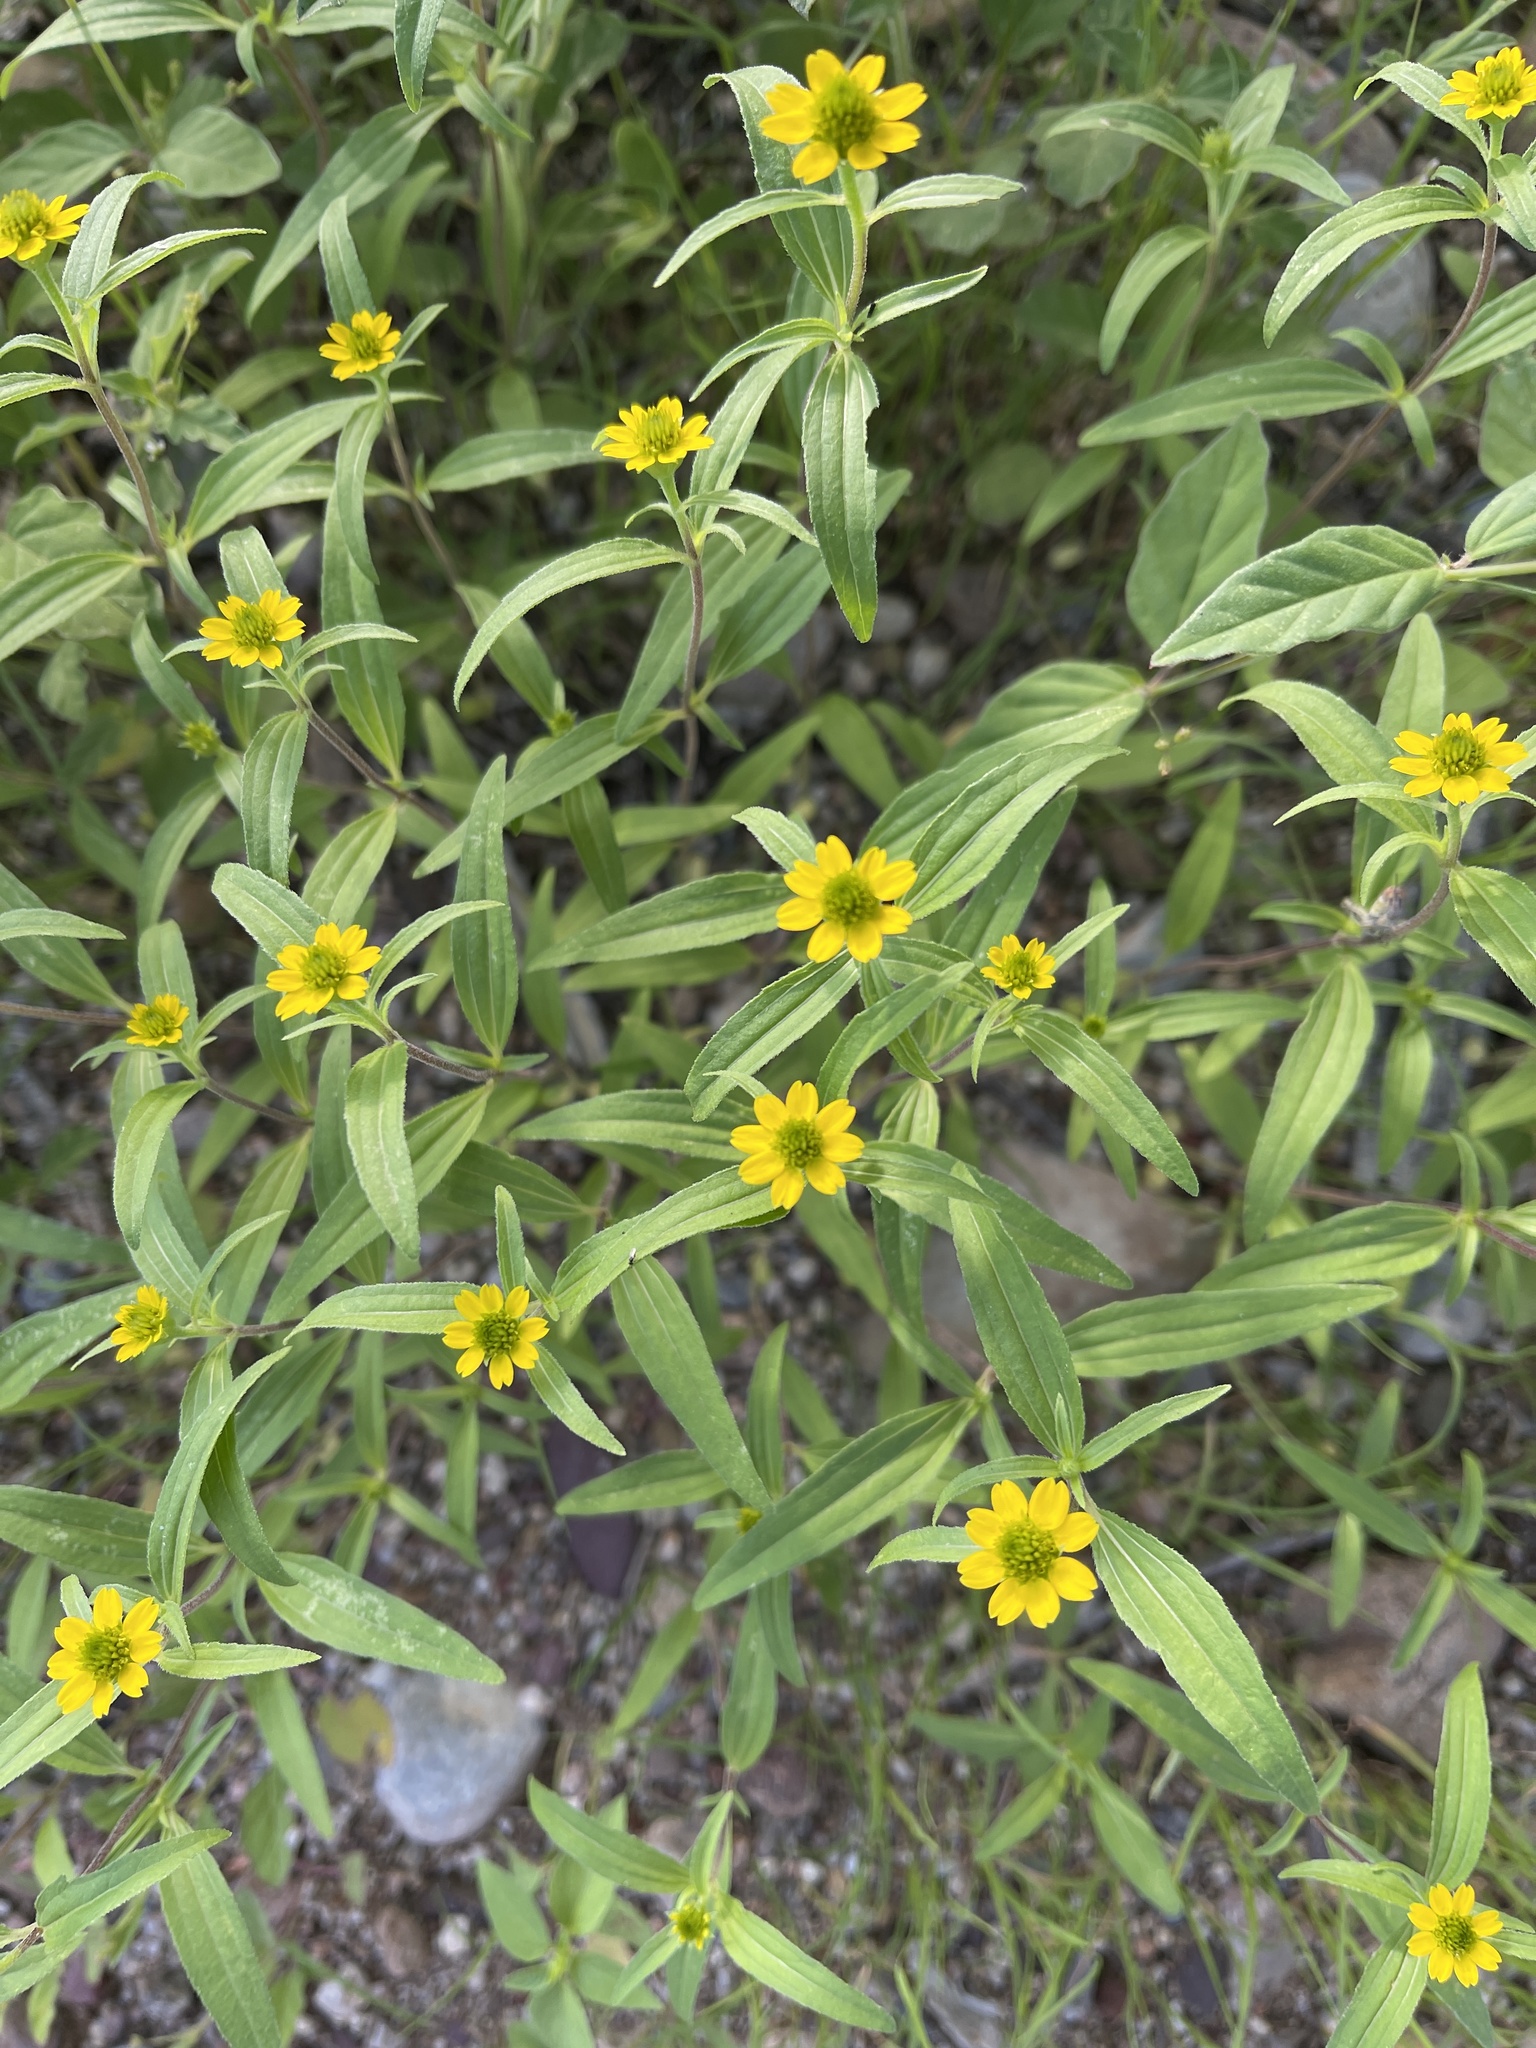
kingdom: Plantae
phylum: Tracheophyta
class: Magnoliopsida
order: Asterales
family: Asteraceae
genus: Sanvitalia
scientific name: Sanvitalia abertii
